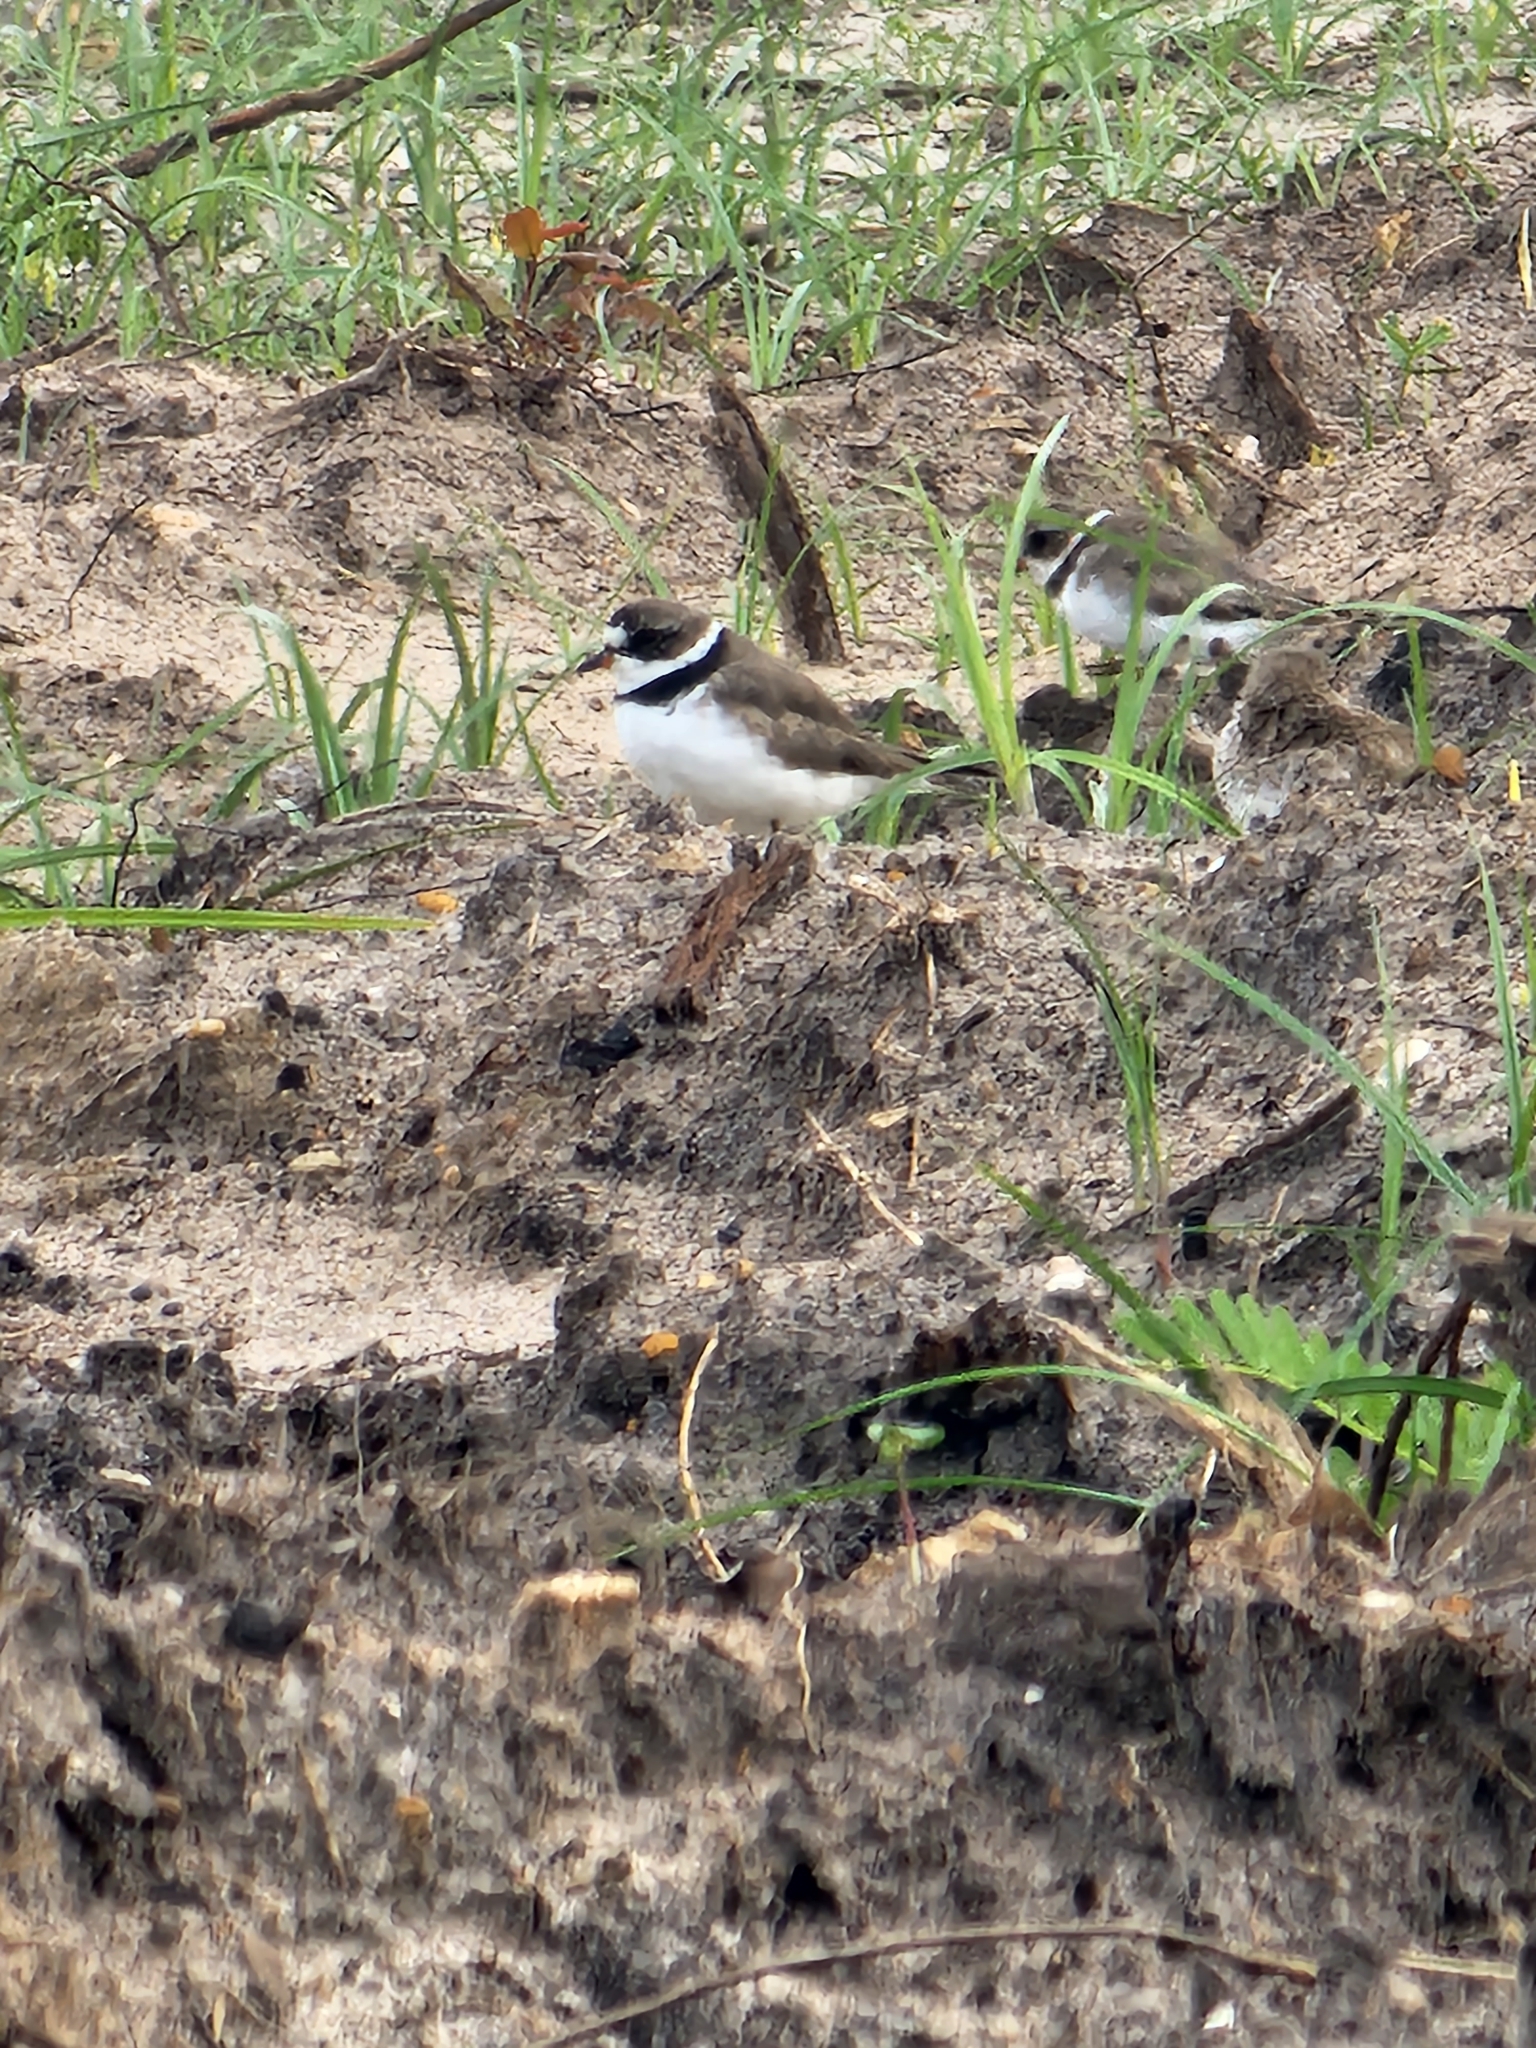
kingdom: Animalia
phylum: Chordata
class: Aves
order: Charadriiformes
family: Scolopacidae
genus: Calidris
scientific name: Calidris alpina
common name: Dunlin
